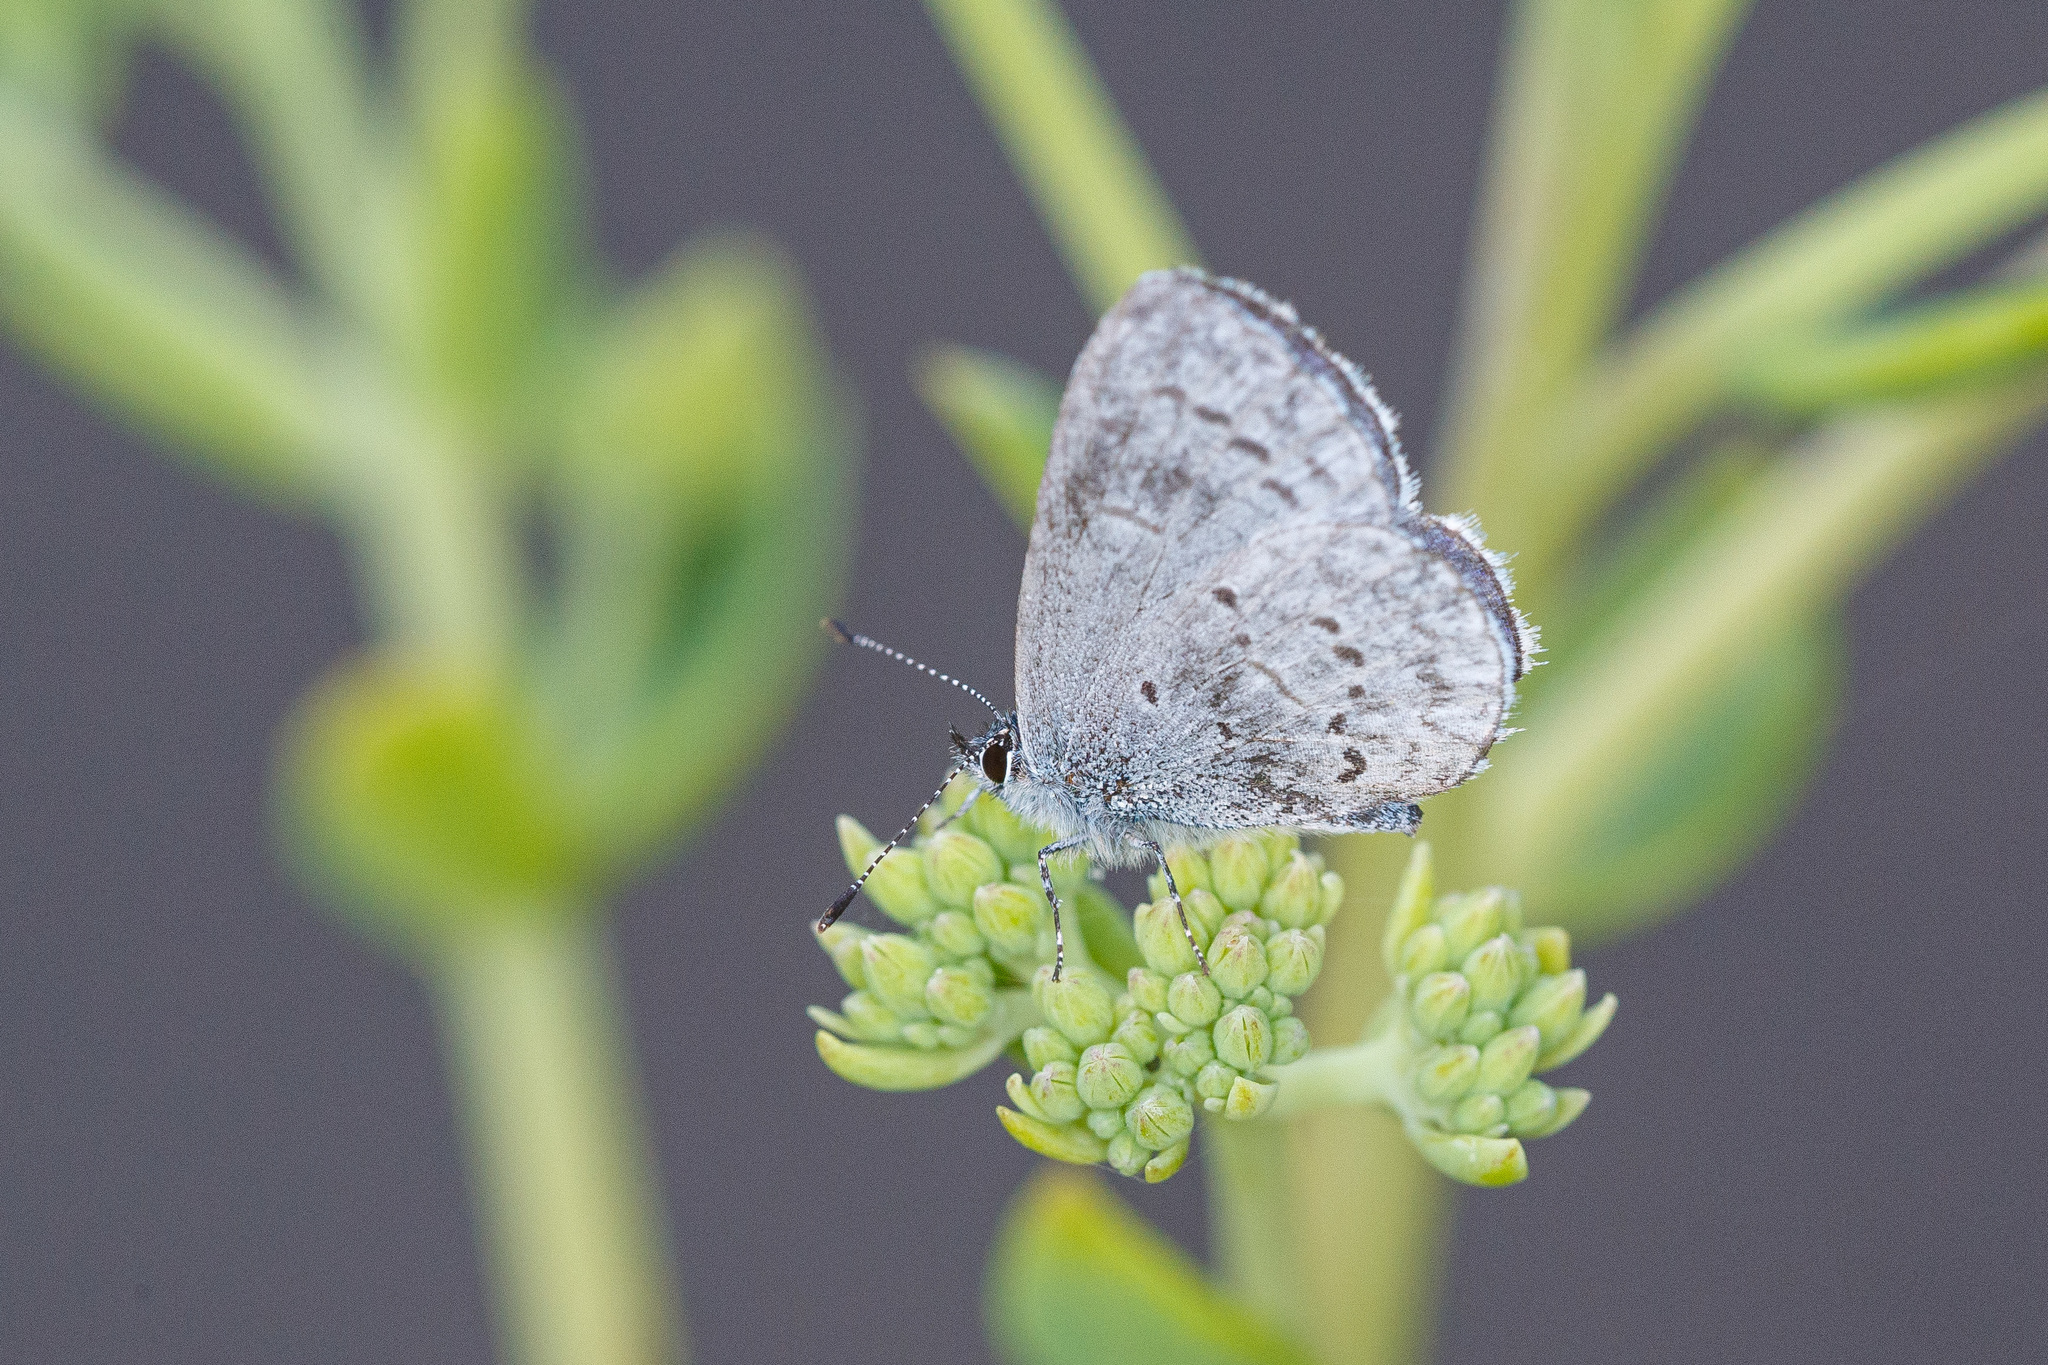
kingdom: Animalia
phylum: Arthropoda
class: Insecta
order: Lepidoptera
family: Lycaenidae
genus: Celastrina
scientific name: Celastrina ladon
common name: Spring azure
